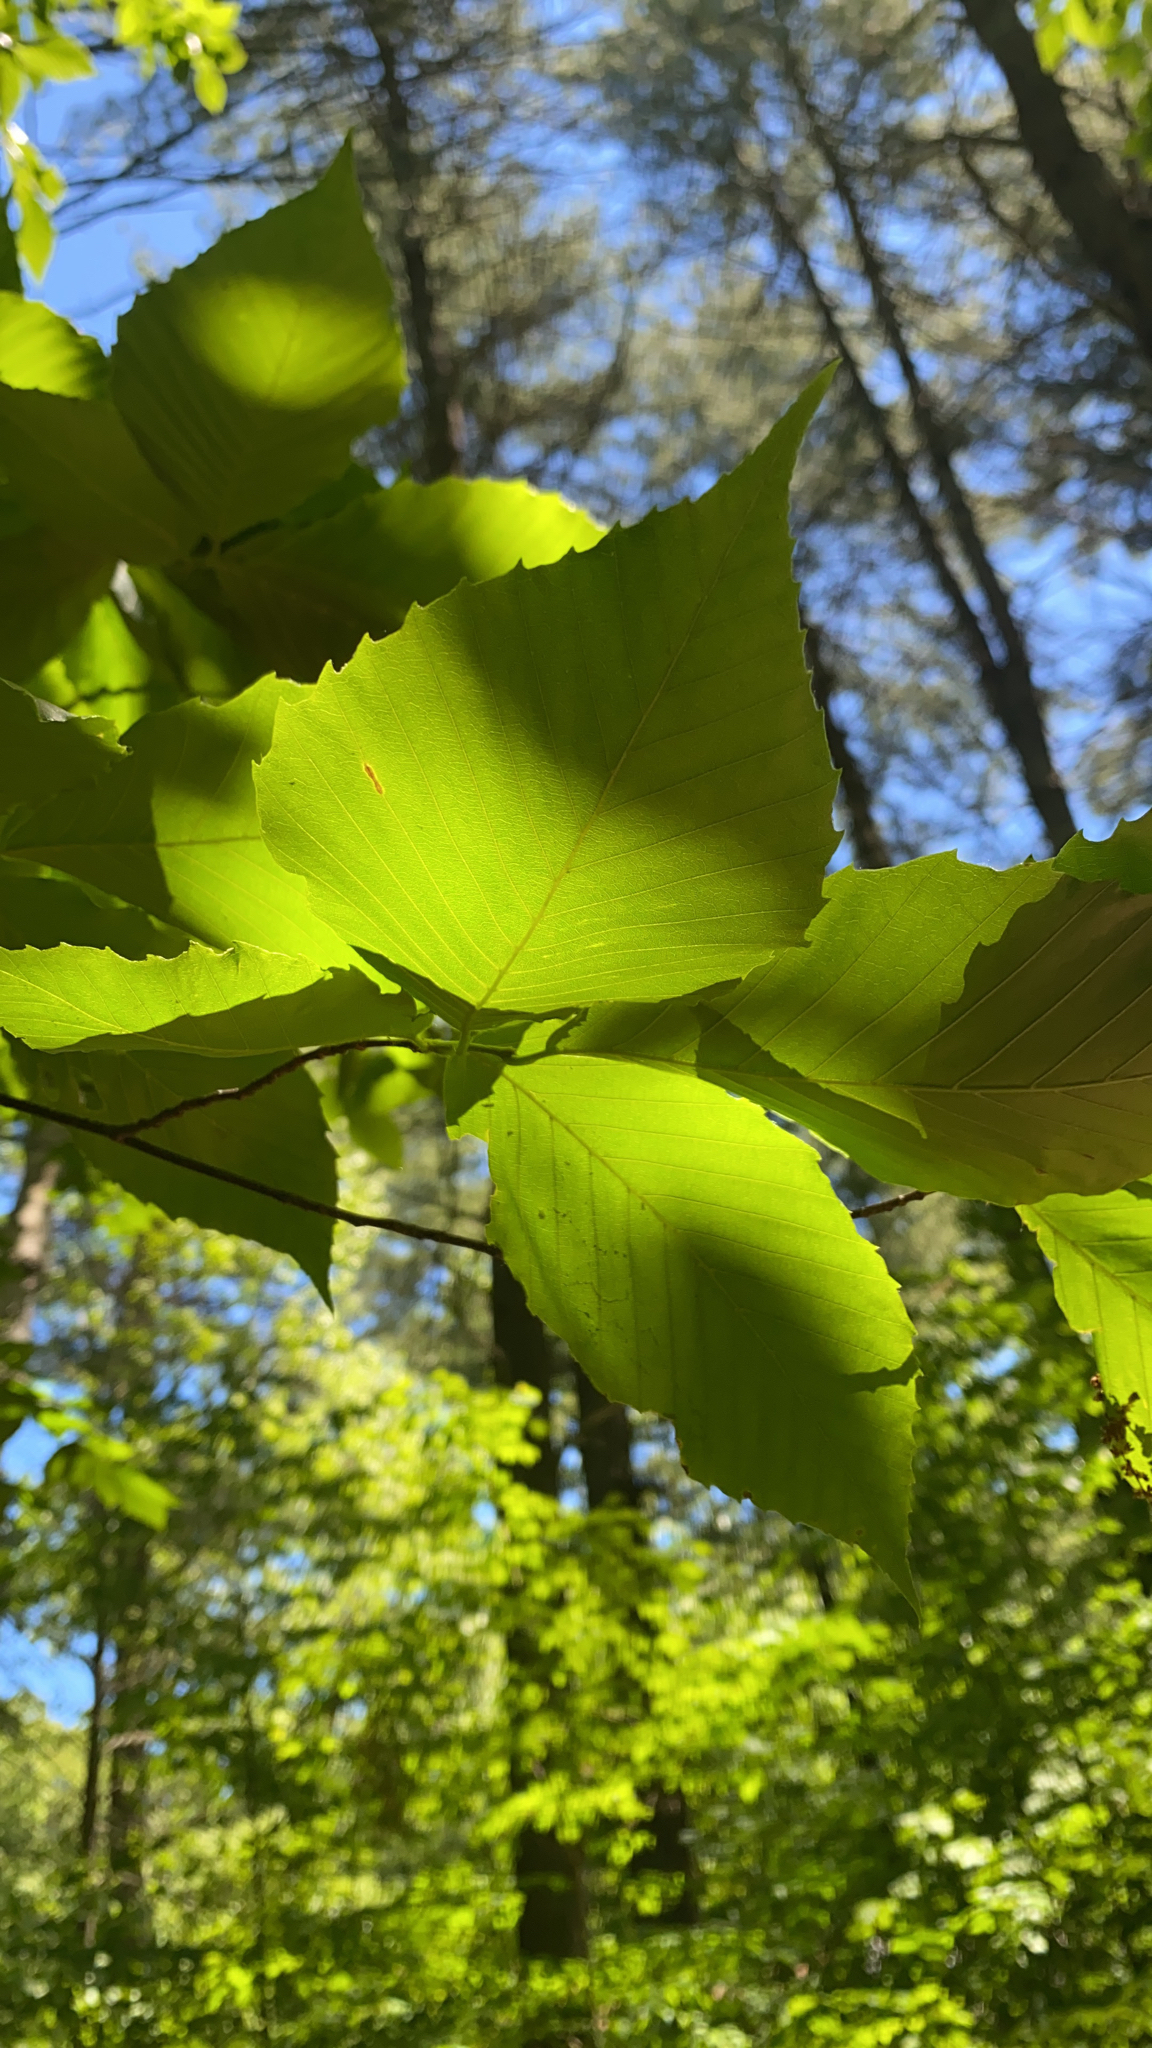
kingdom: Plantae
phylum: Tracheophyta
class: Magnoliopsida
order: Fagales
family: Fagaceae
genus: Fagus
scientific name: Fagus grandifolia
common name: American beech
